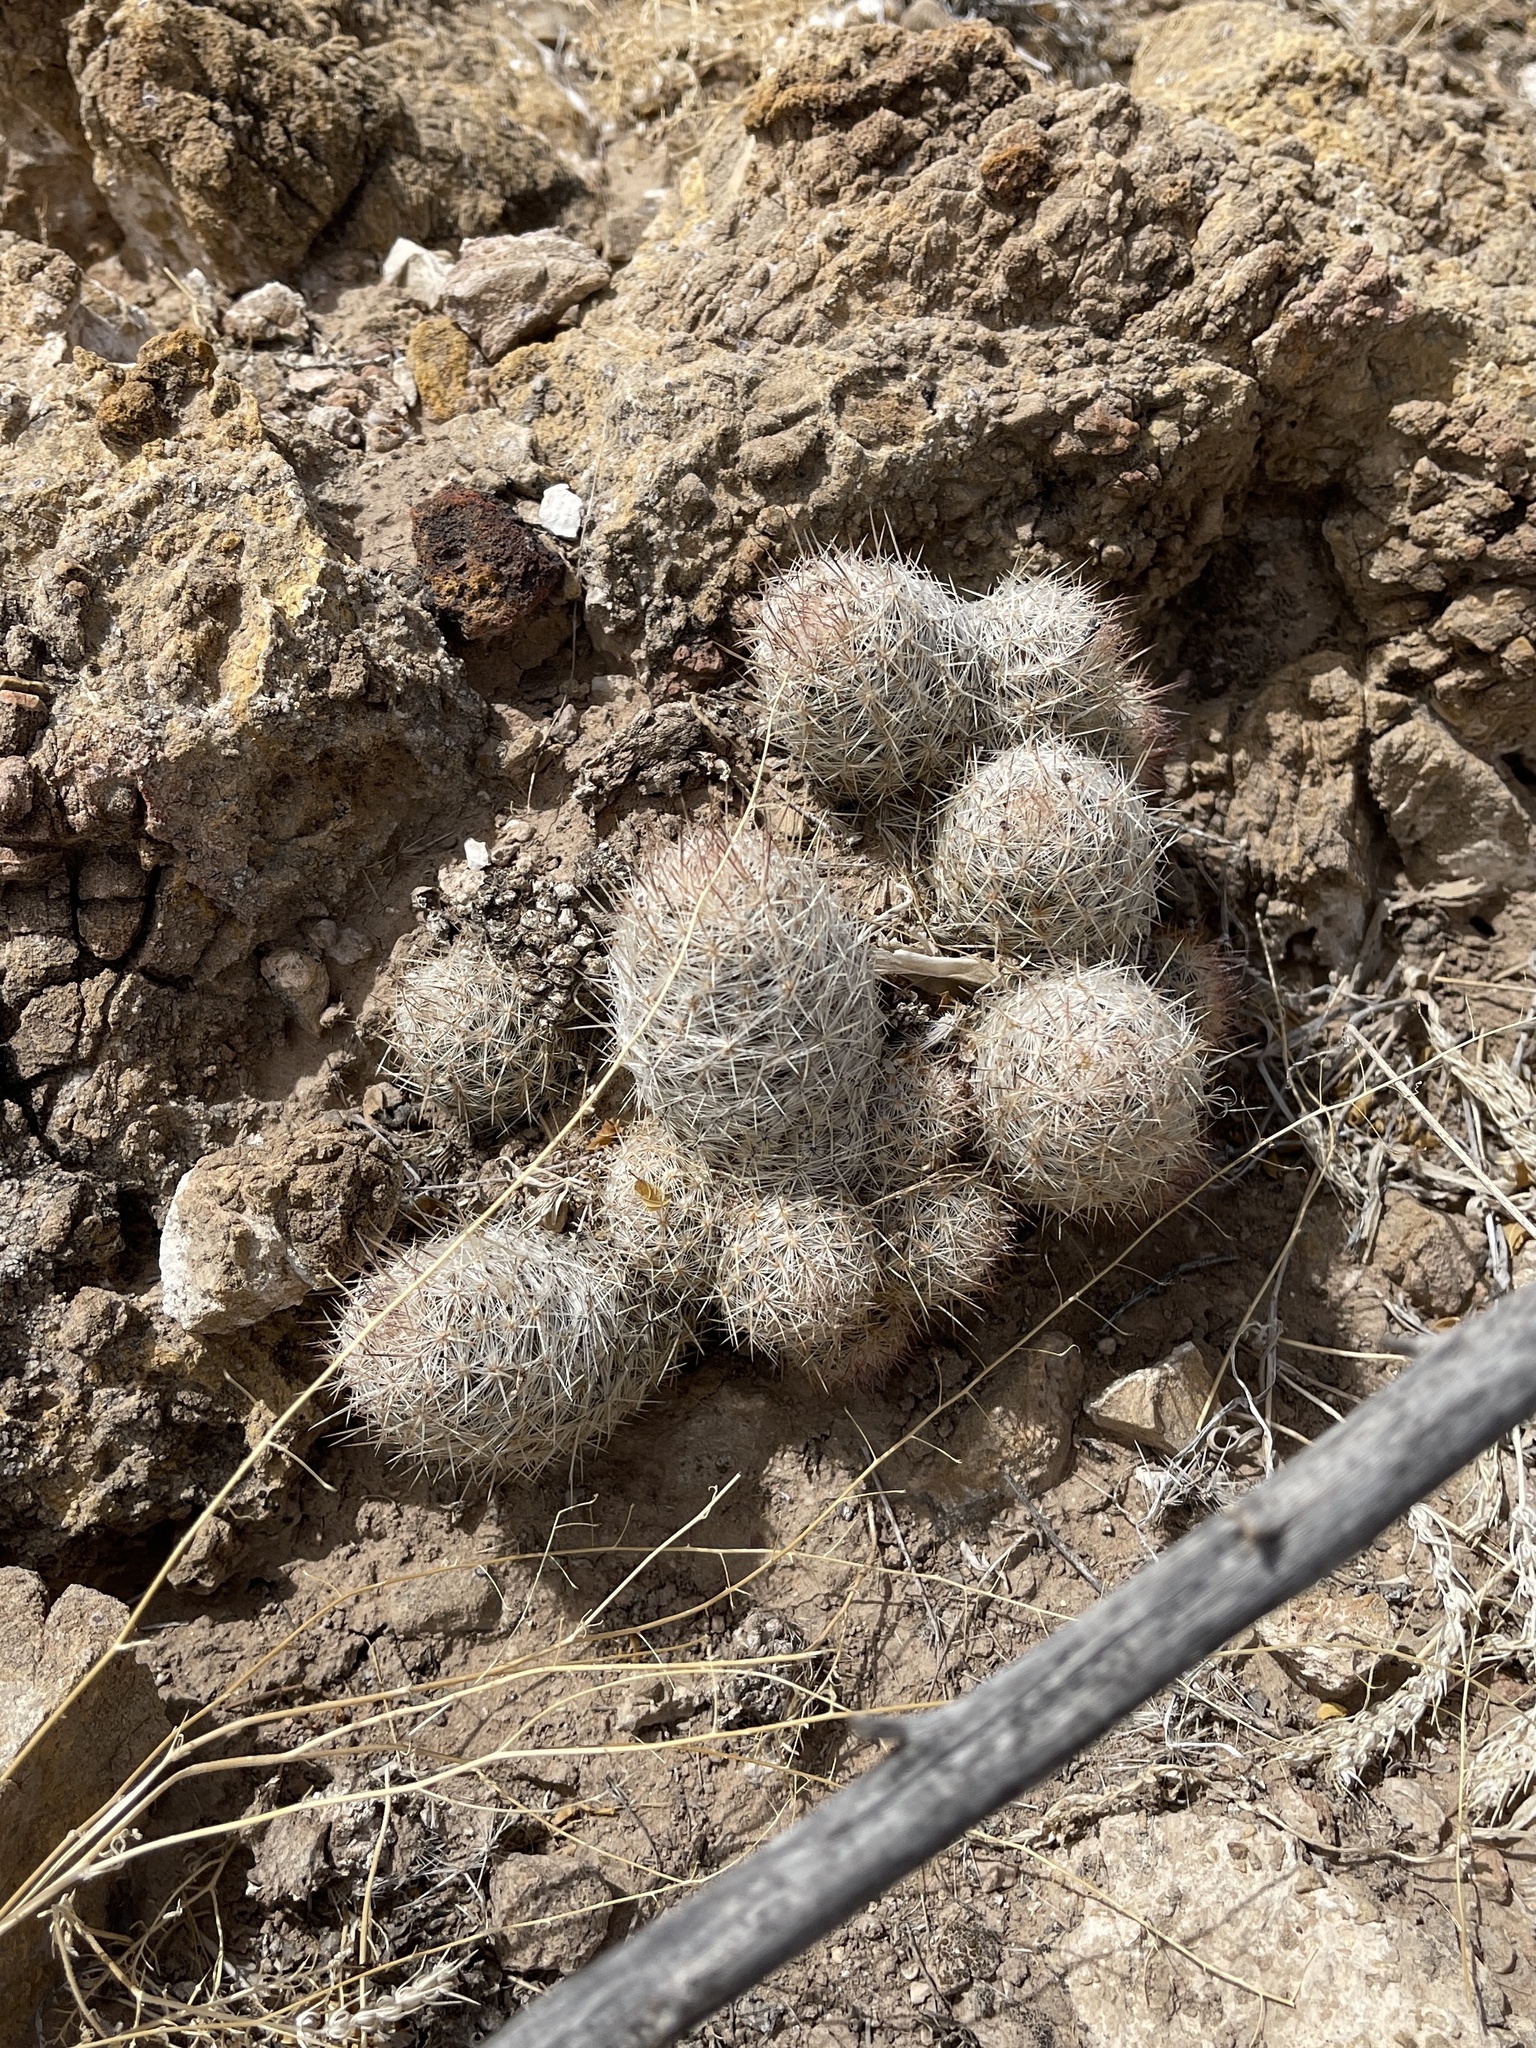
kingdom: Plantae
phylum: Tracheophyta
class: Magnoliopsida
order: Caryophyllales
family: Cactaceae
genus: Pelecyphora
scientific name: Pelecyphora tuberculosa
